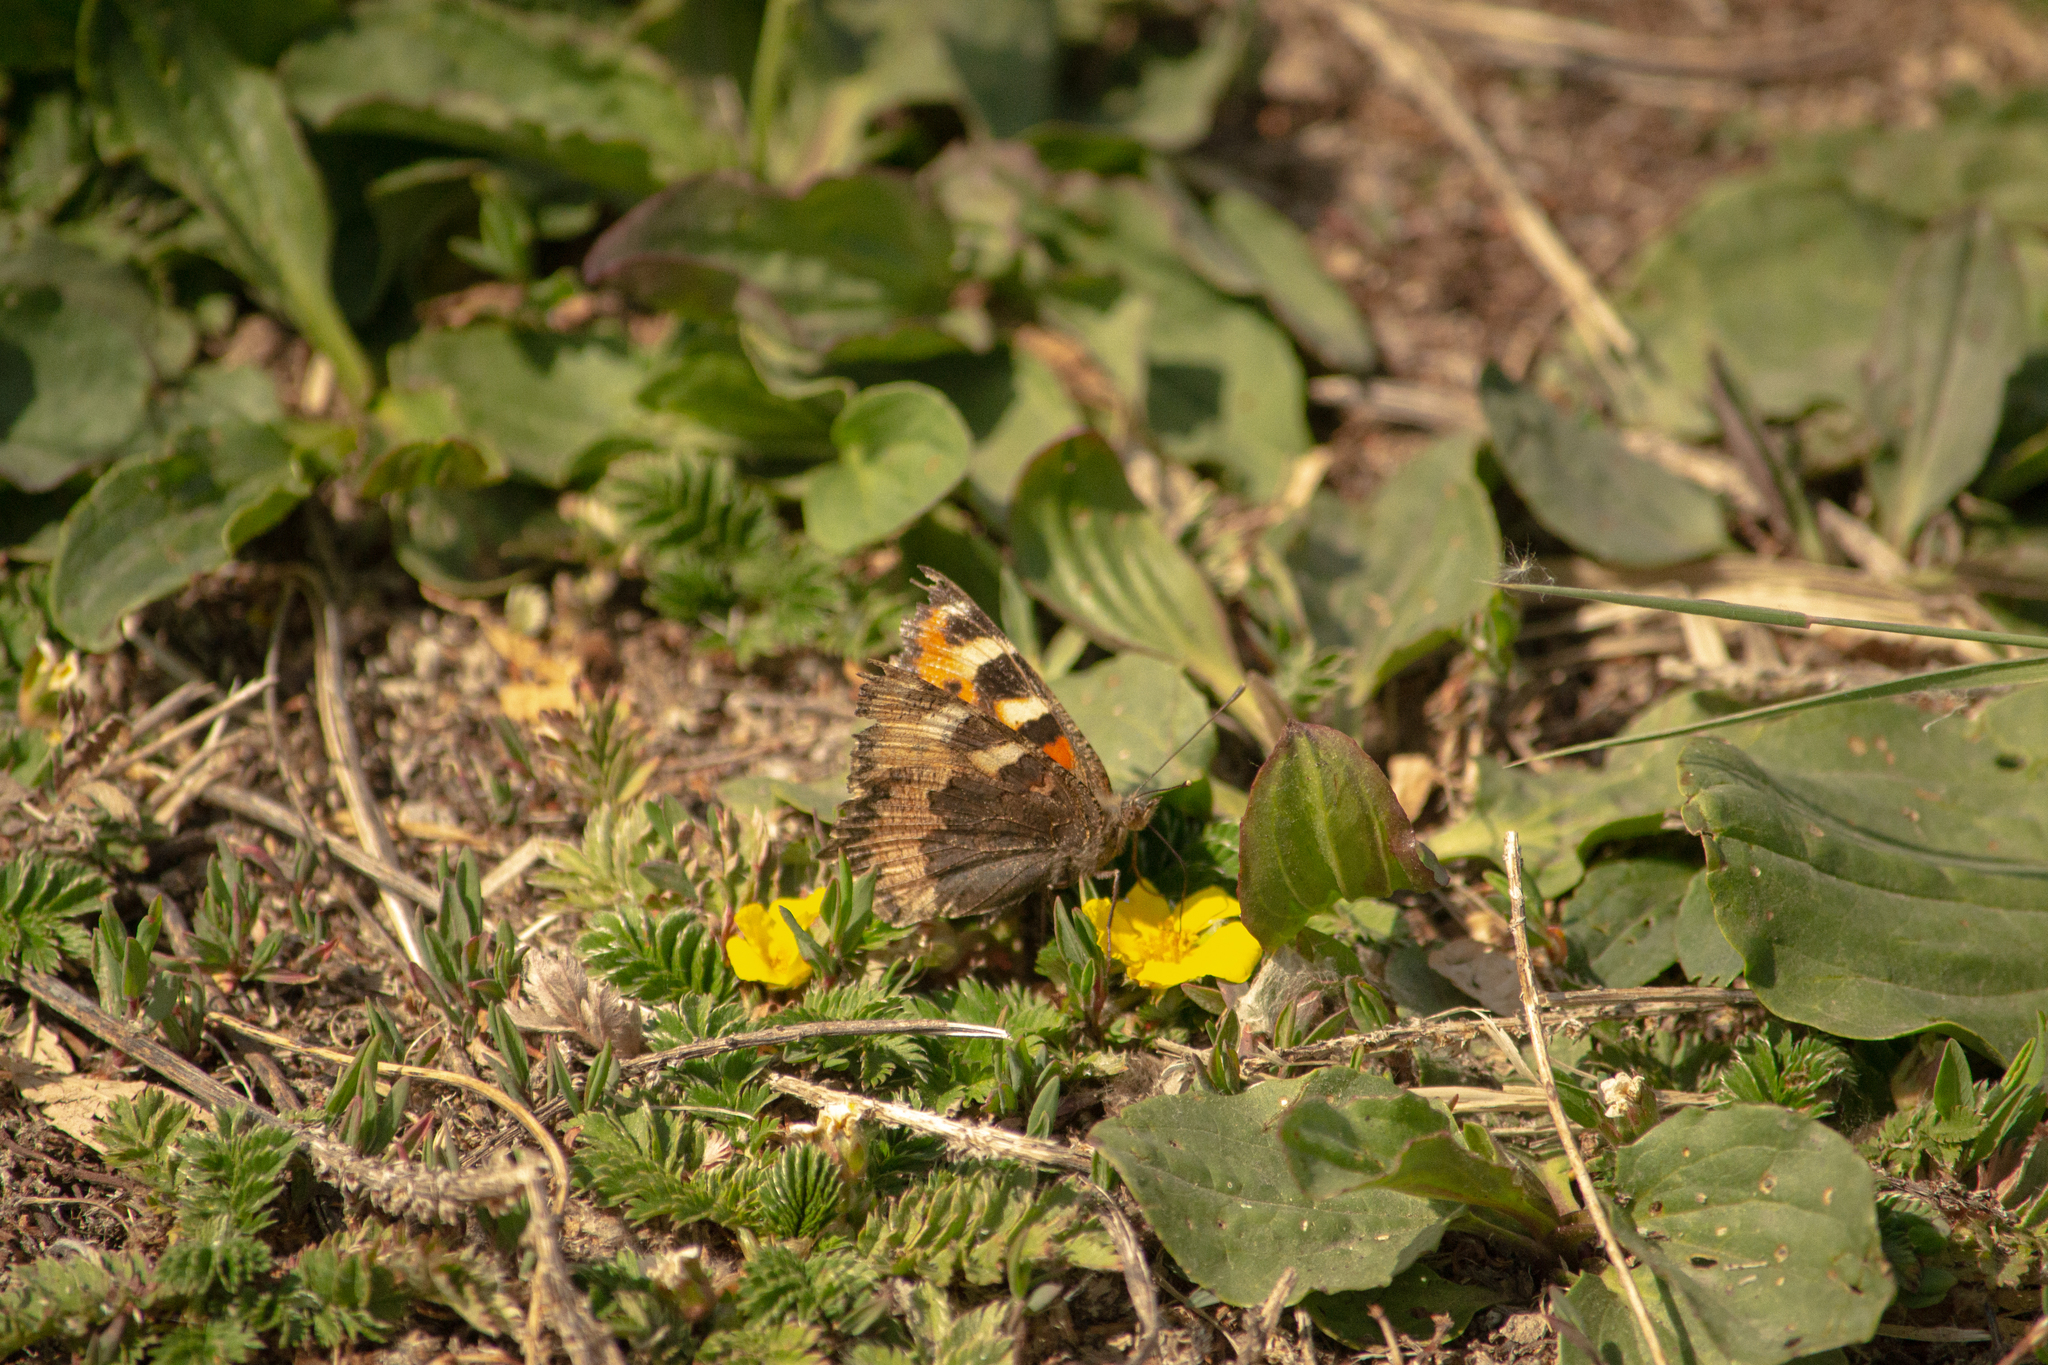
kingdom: Animalia
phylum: Arthropoda
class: Insecta
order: Lepidoptera
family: Nymphalidae
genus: Aglais
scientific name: Aglais urticae
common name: Small tortoiseshell
